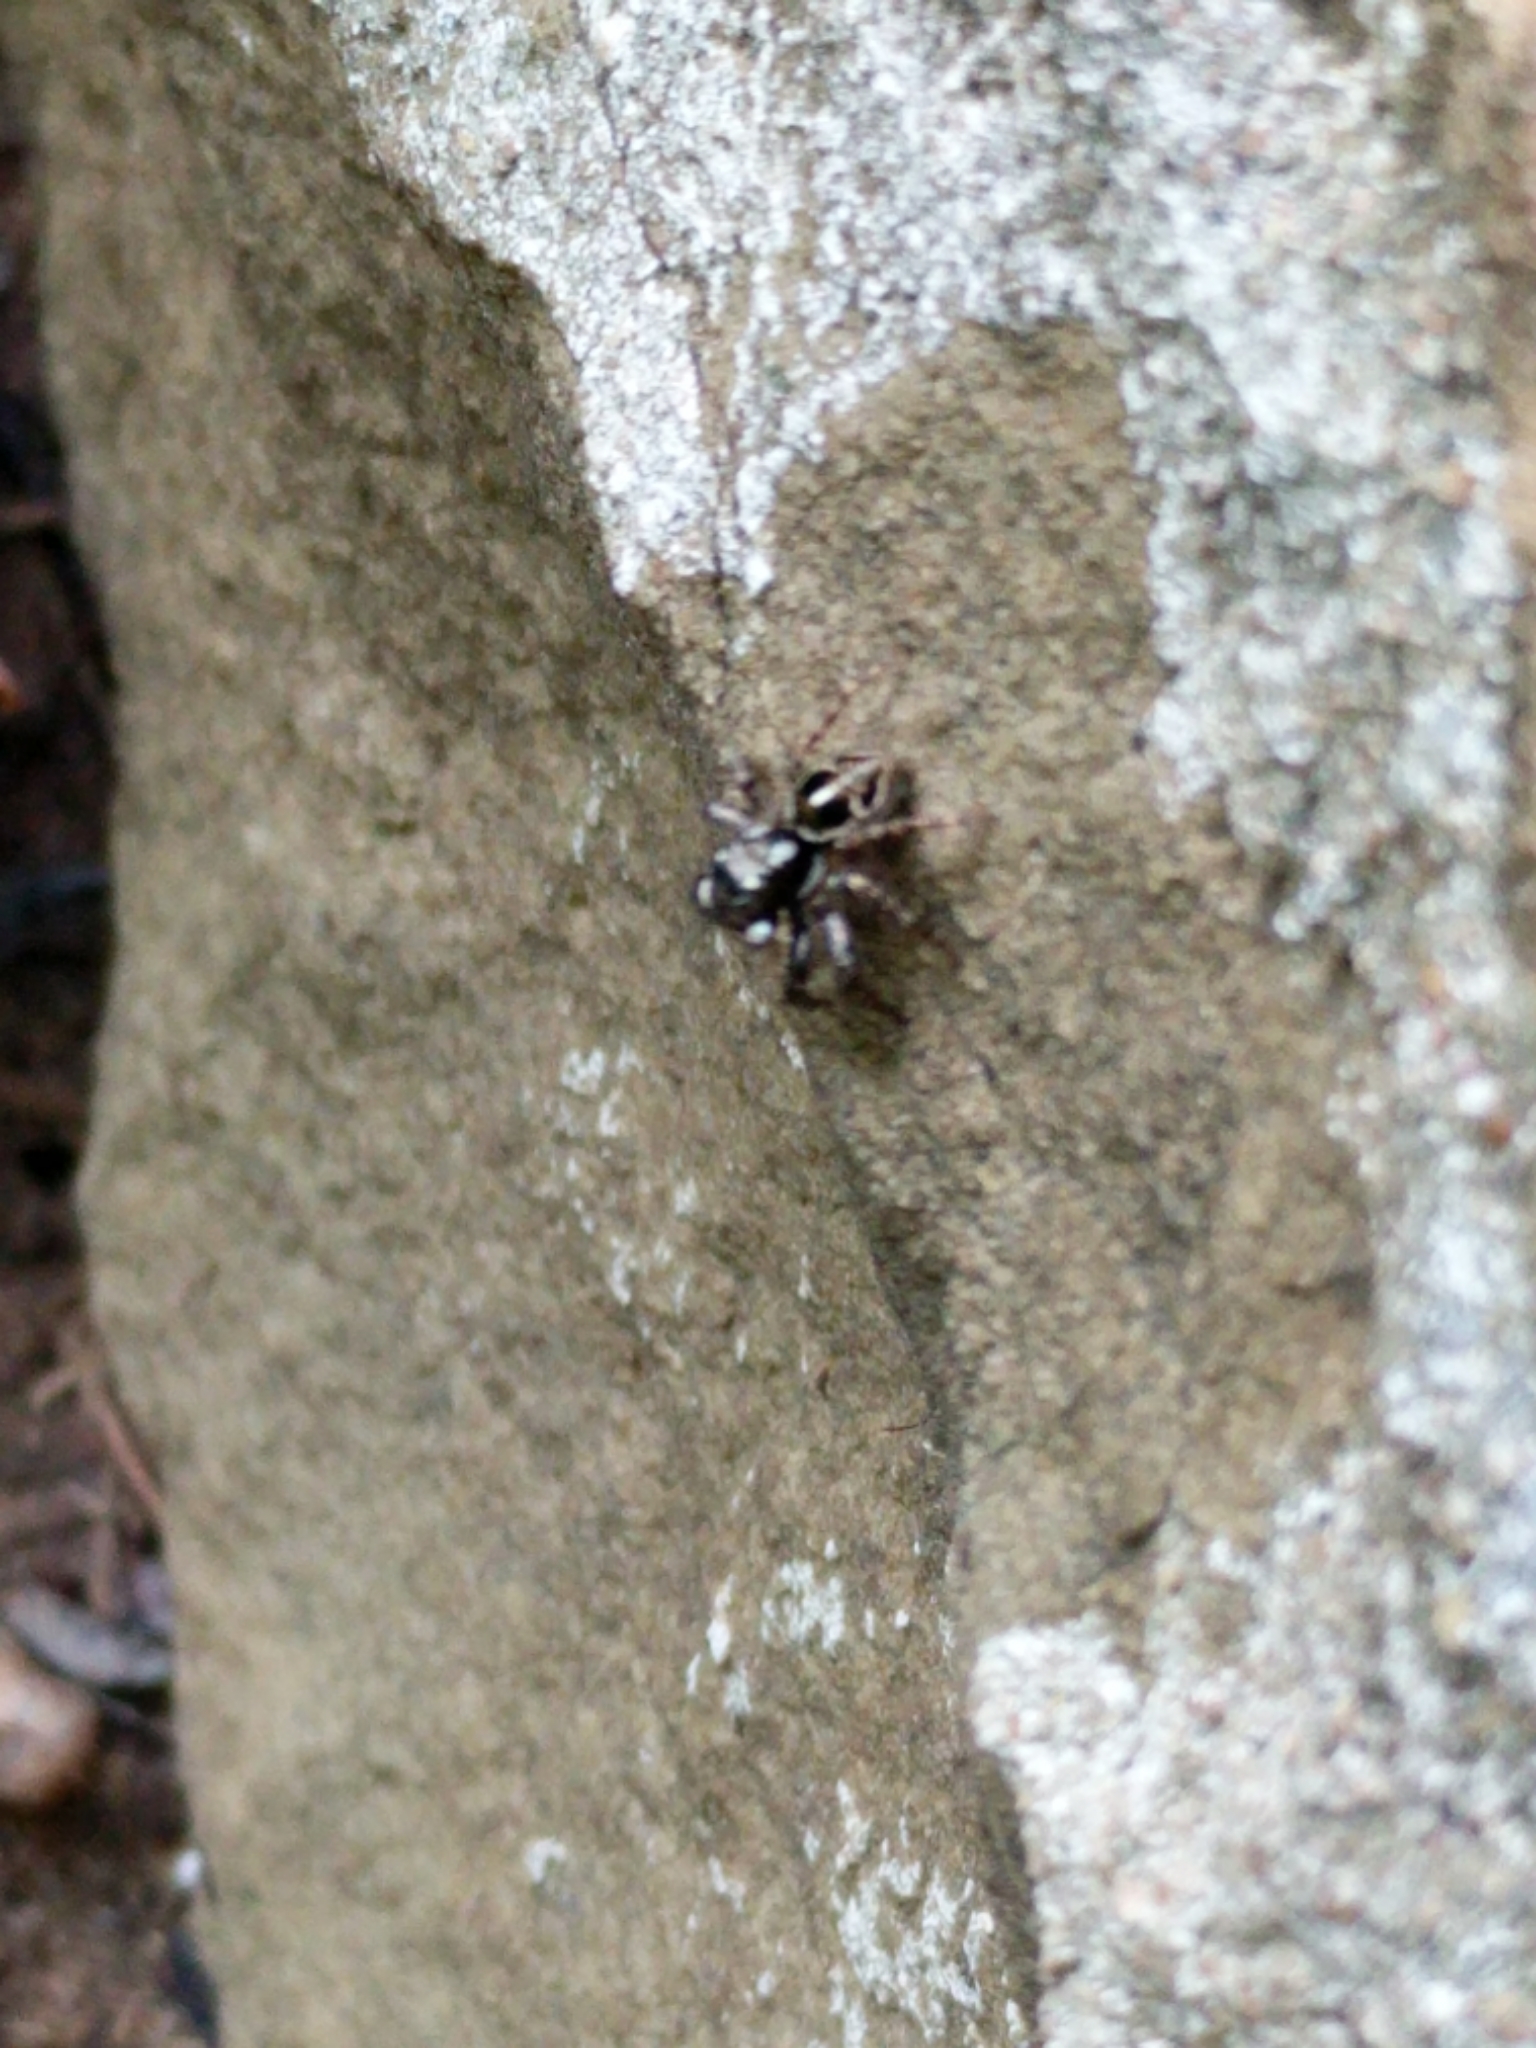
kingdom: Animalia
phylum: Arthropoda
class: Arachnida
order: Araneae
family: Salticidae
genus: Anasaitis
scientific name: Anasaitis canosa
